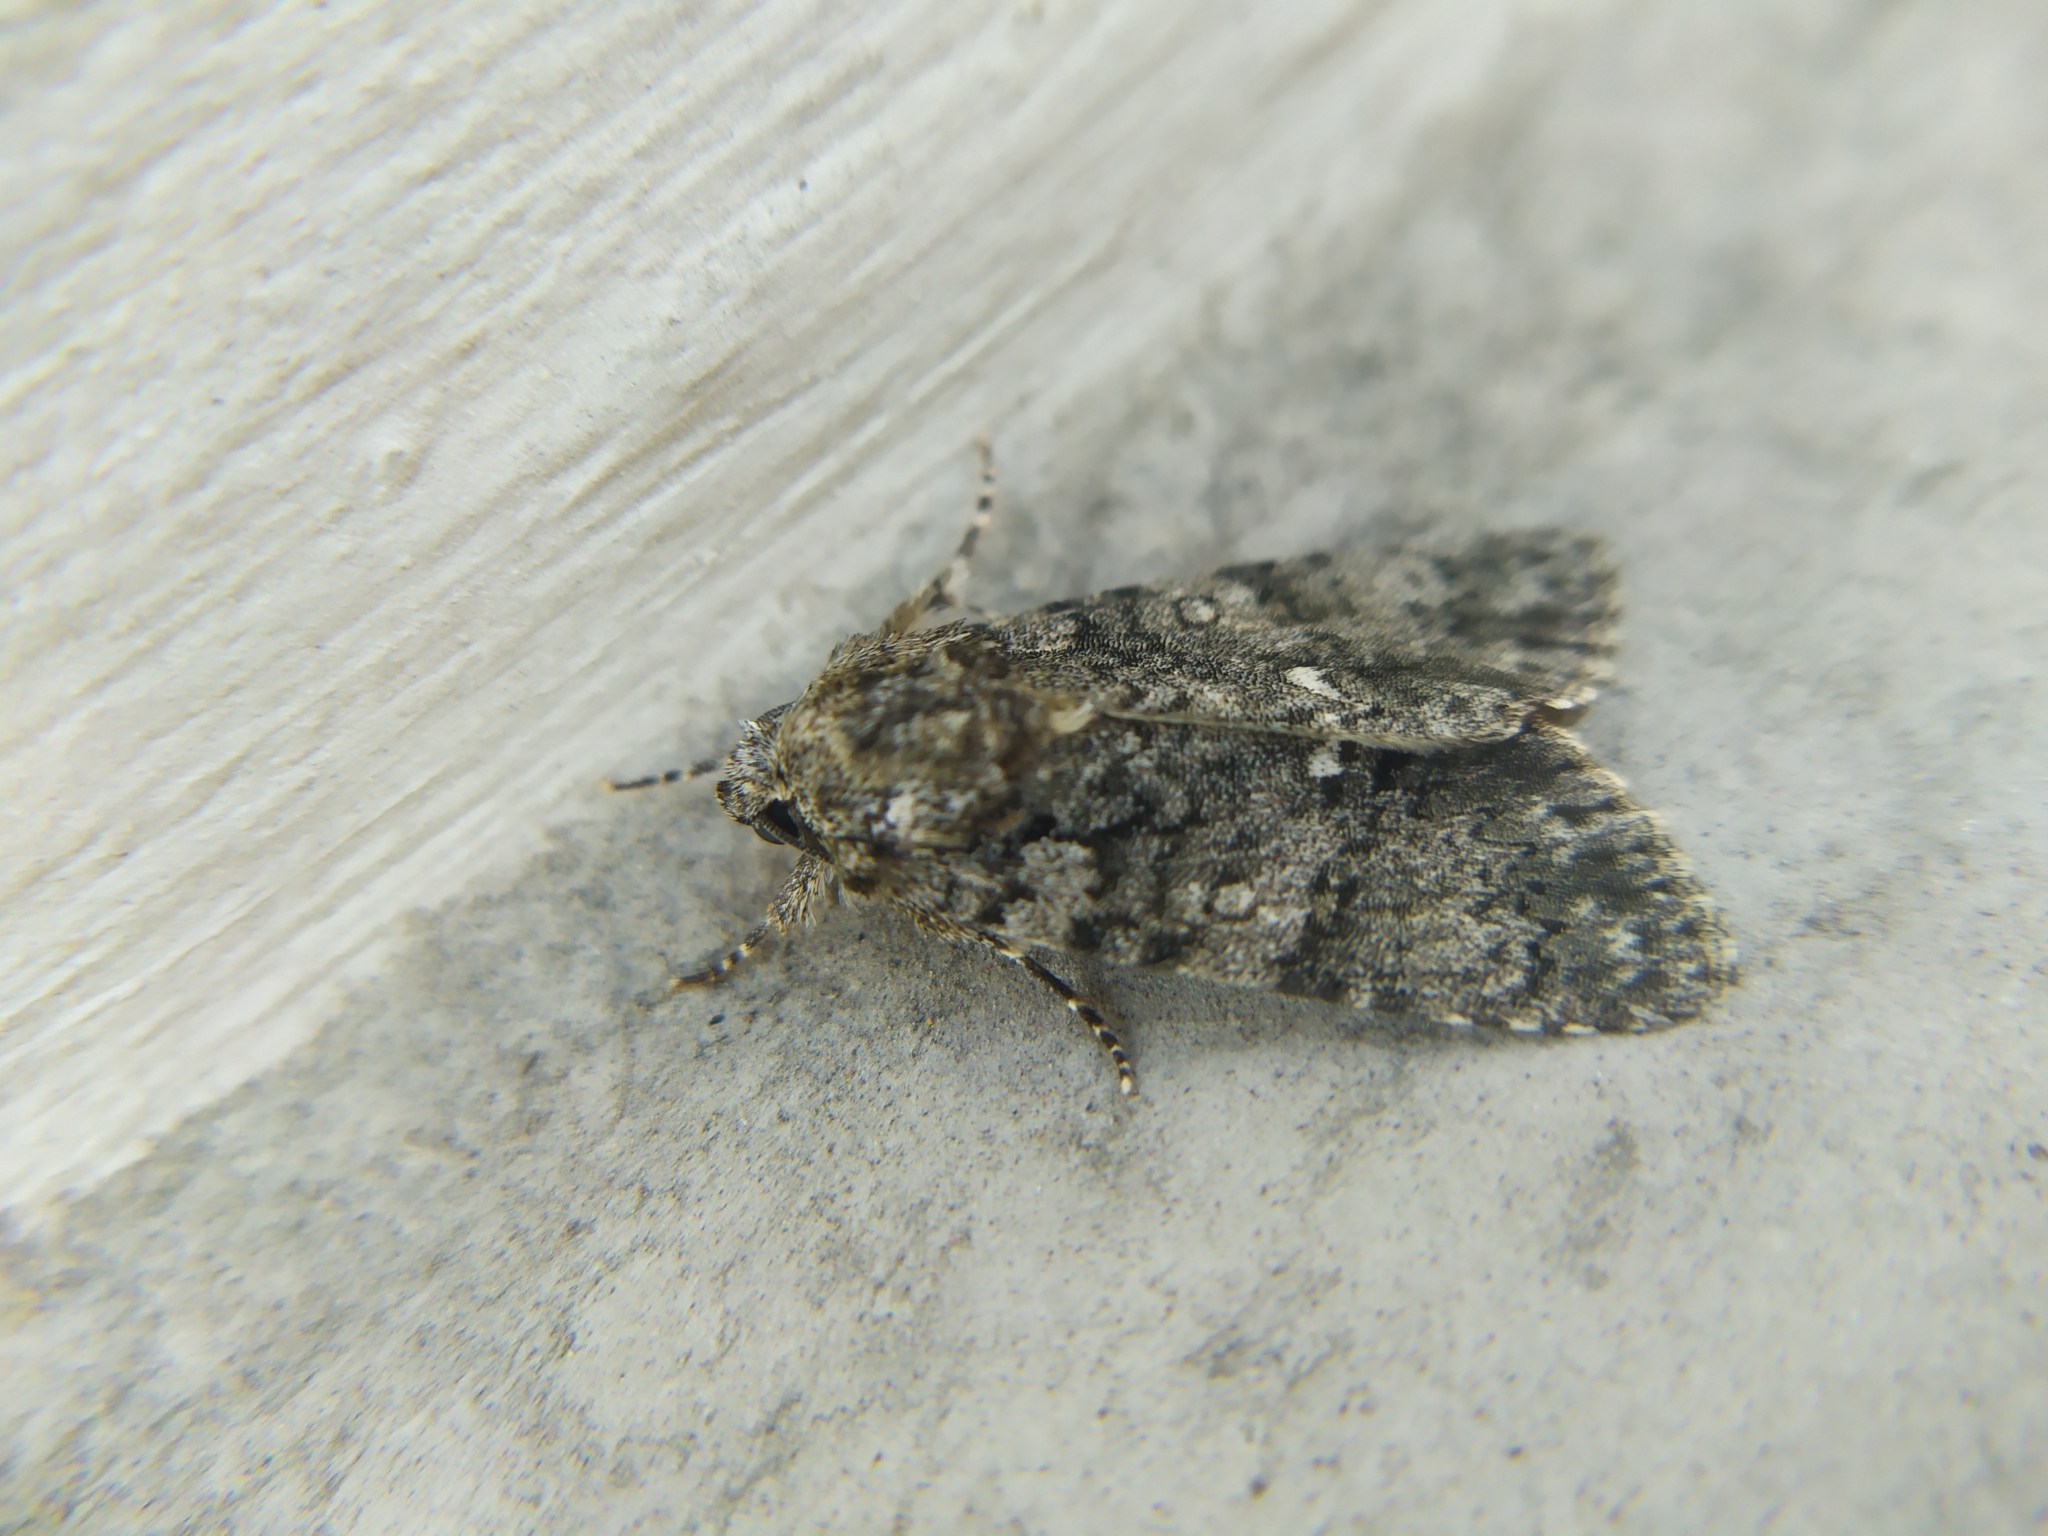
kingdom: Animalia
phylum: Arthropoda
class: Insecta
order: Lepidoptera
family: Noctuidae
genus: Acronicta
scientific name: Acronicta rumicis
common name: Knot grass
